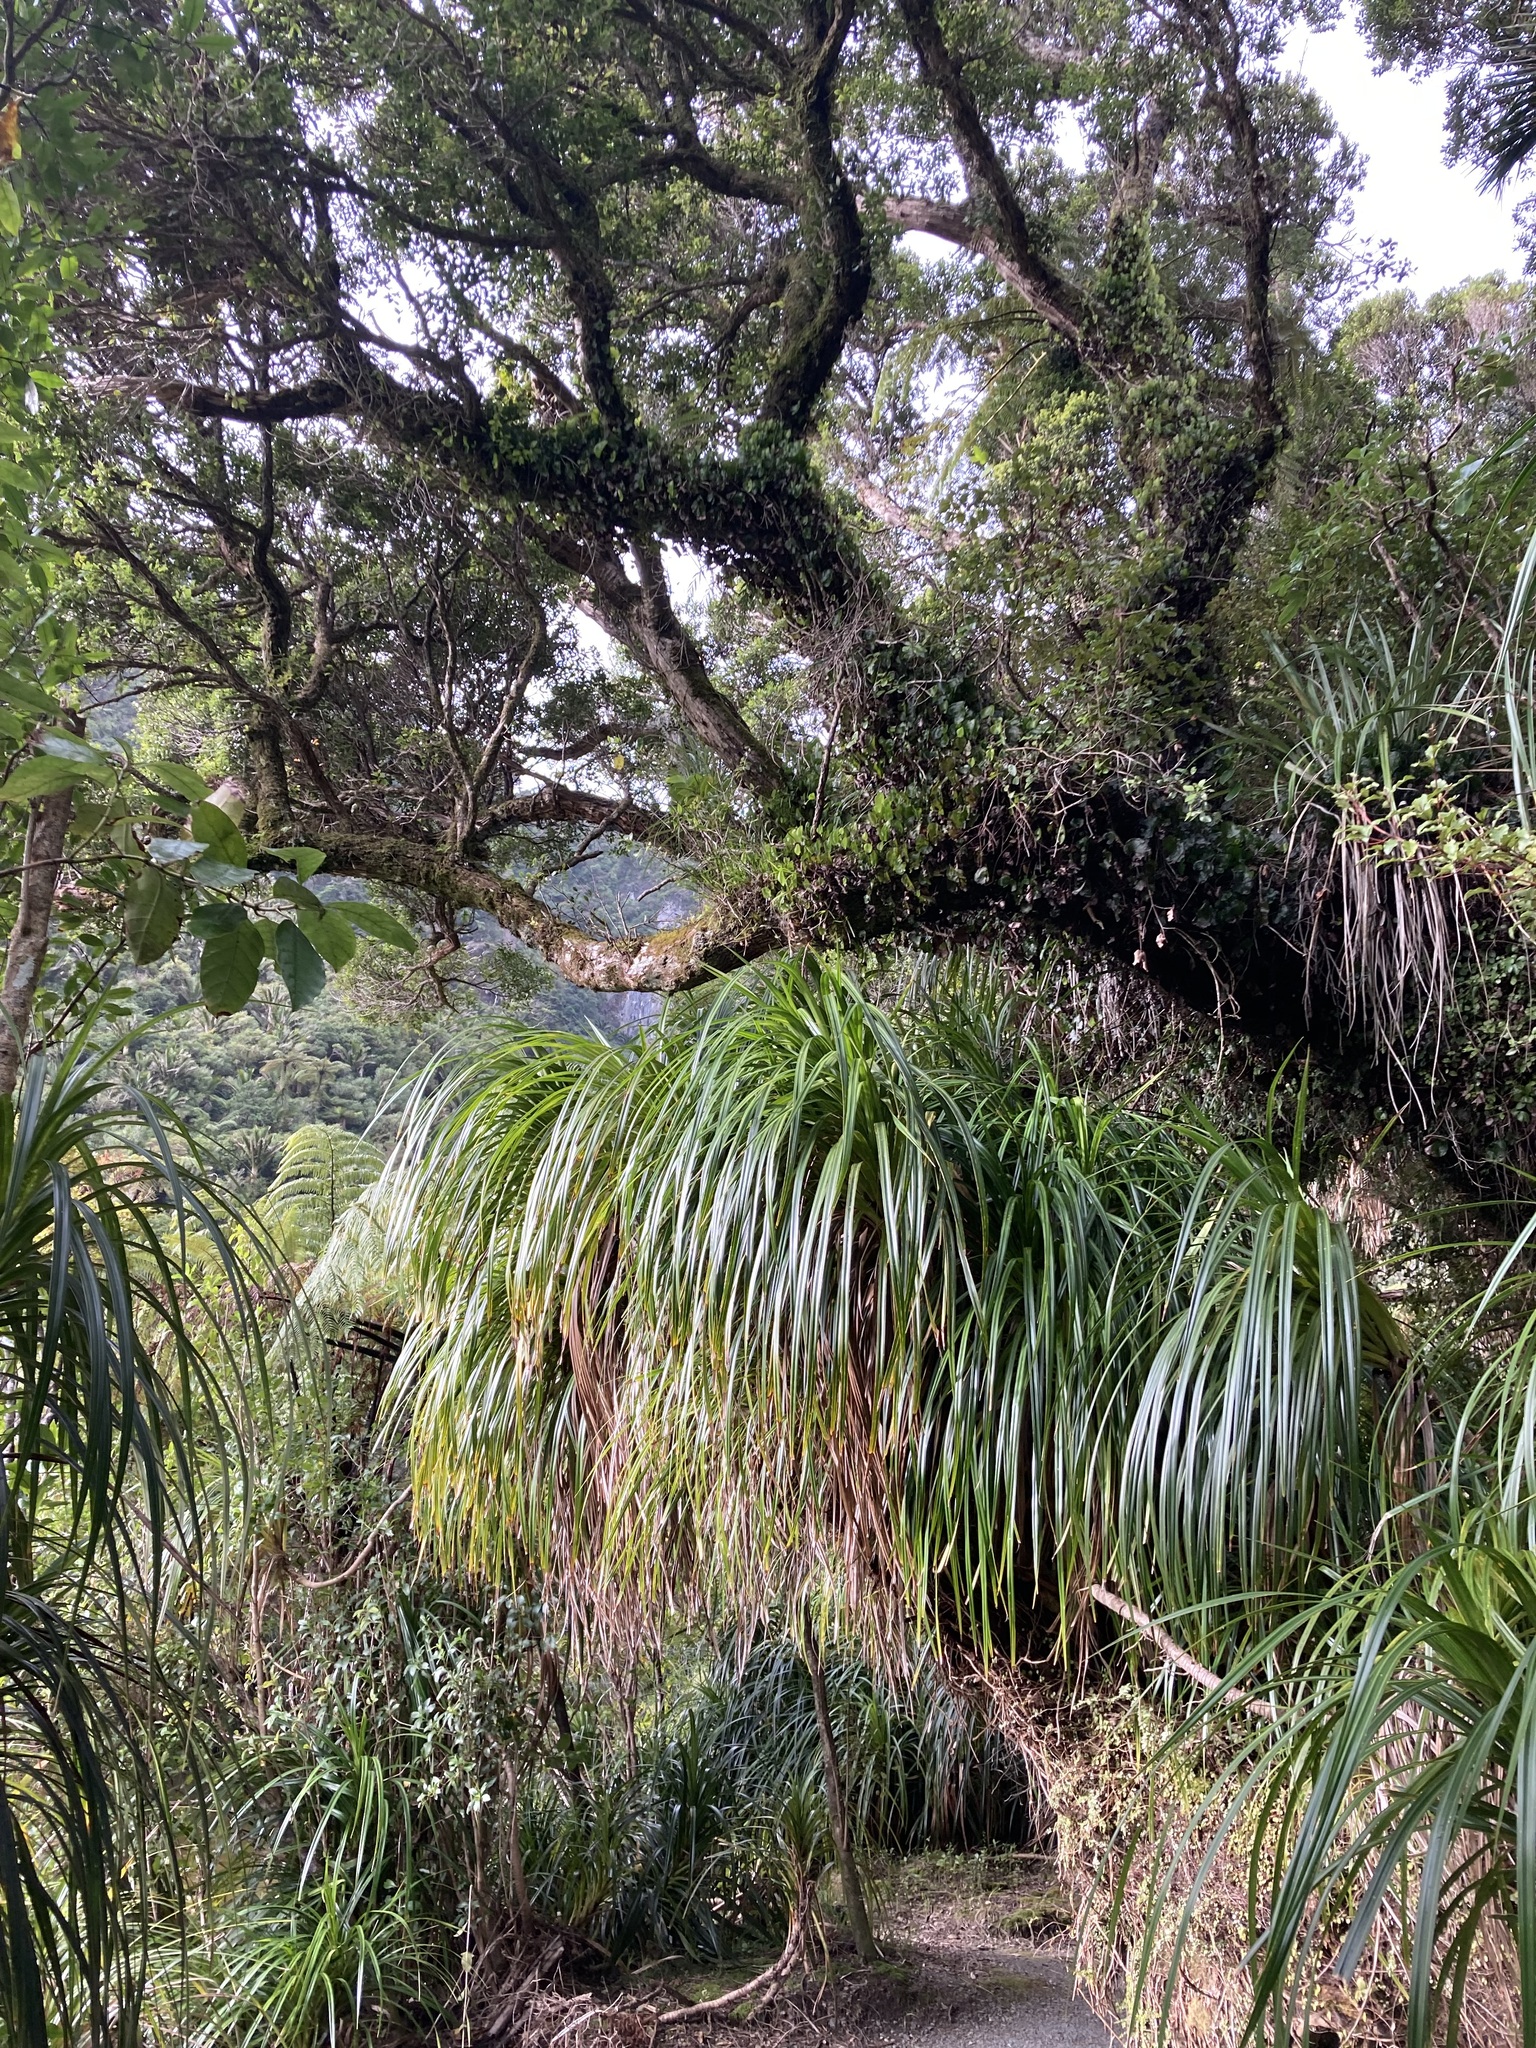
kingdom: Plantae
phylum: Tracheophyta
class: Liliopsida
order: Pandanales
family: Pandanaceae
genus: Freycinetia
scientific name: Freycinetia banksii
